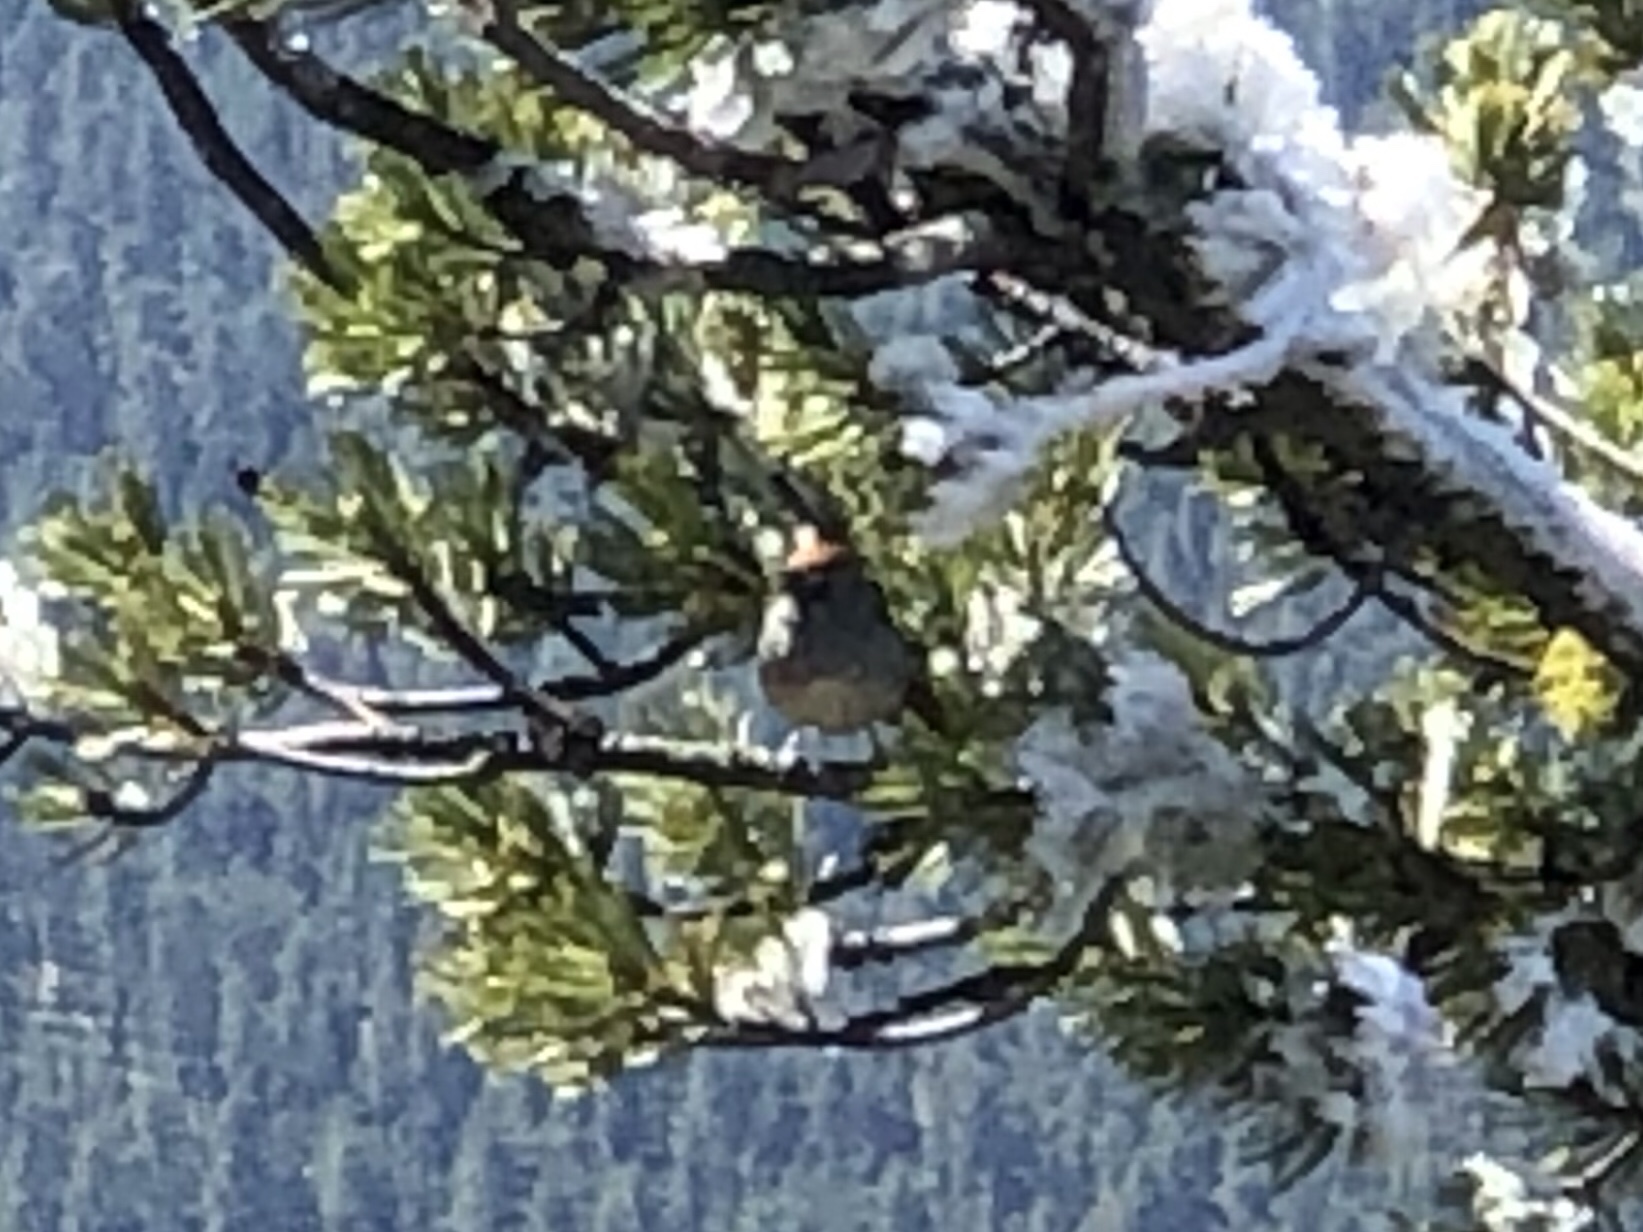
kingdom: Animalia
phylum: Chordata
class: Aves
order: Passeriformes
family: Passerellidae
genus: Pipilo
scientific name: Pipilo chlorurus
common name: Green-tailed towhee
